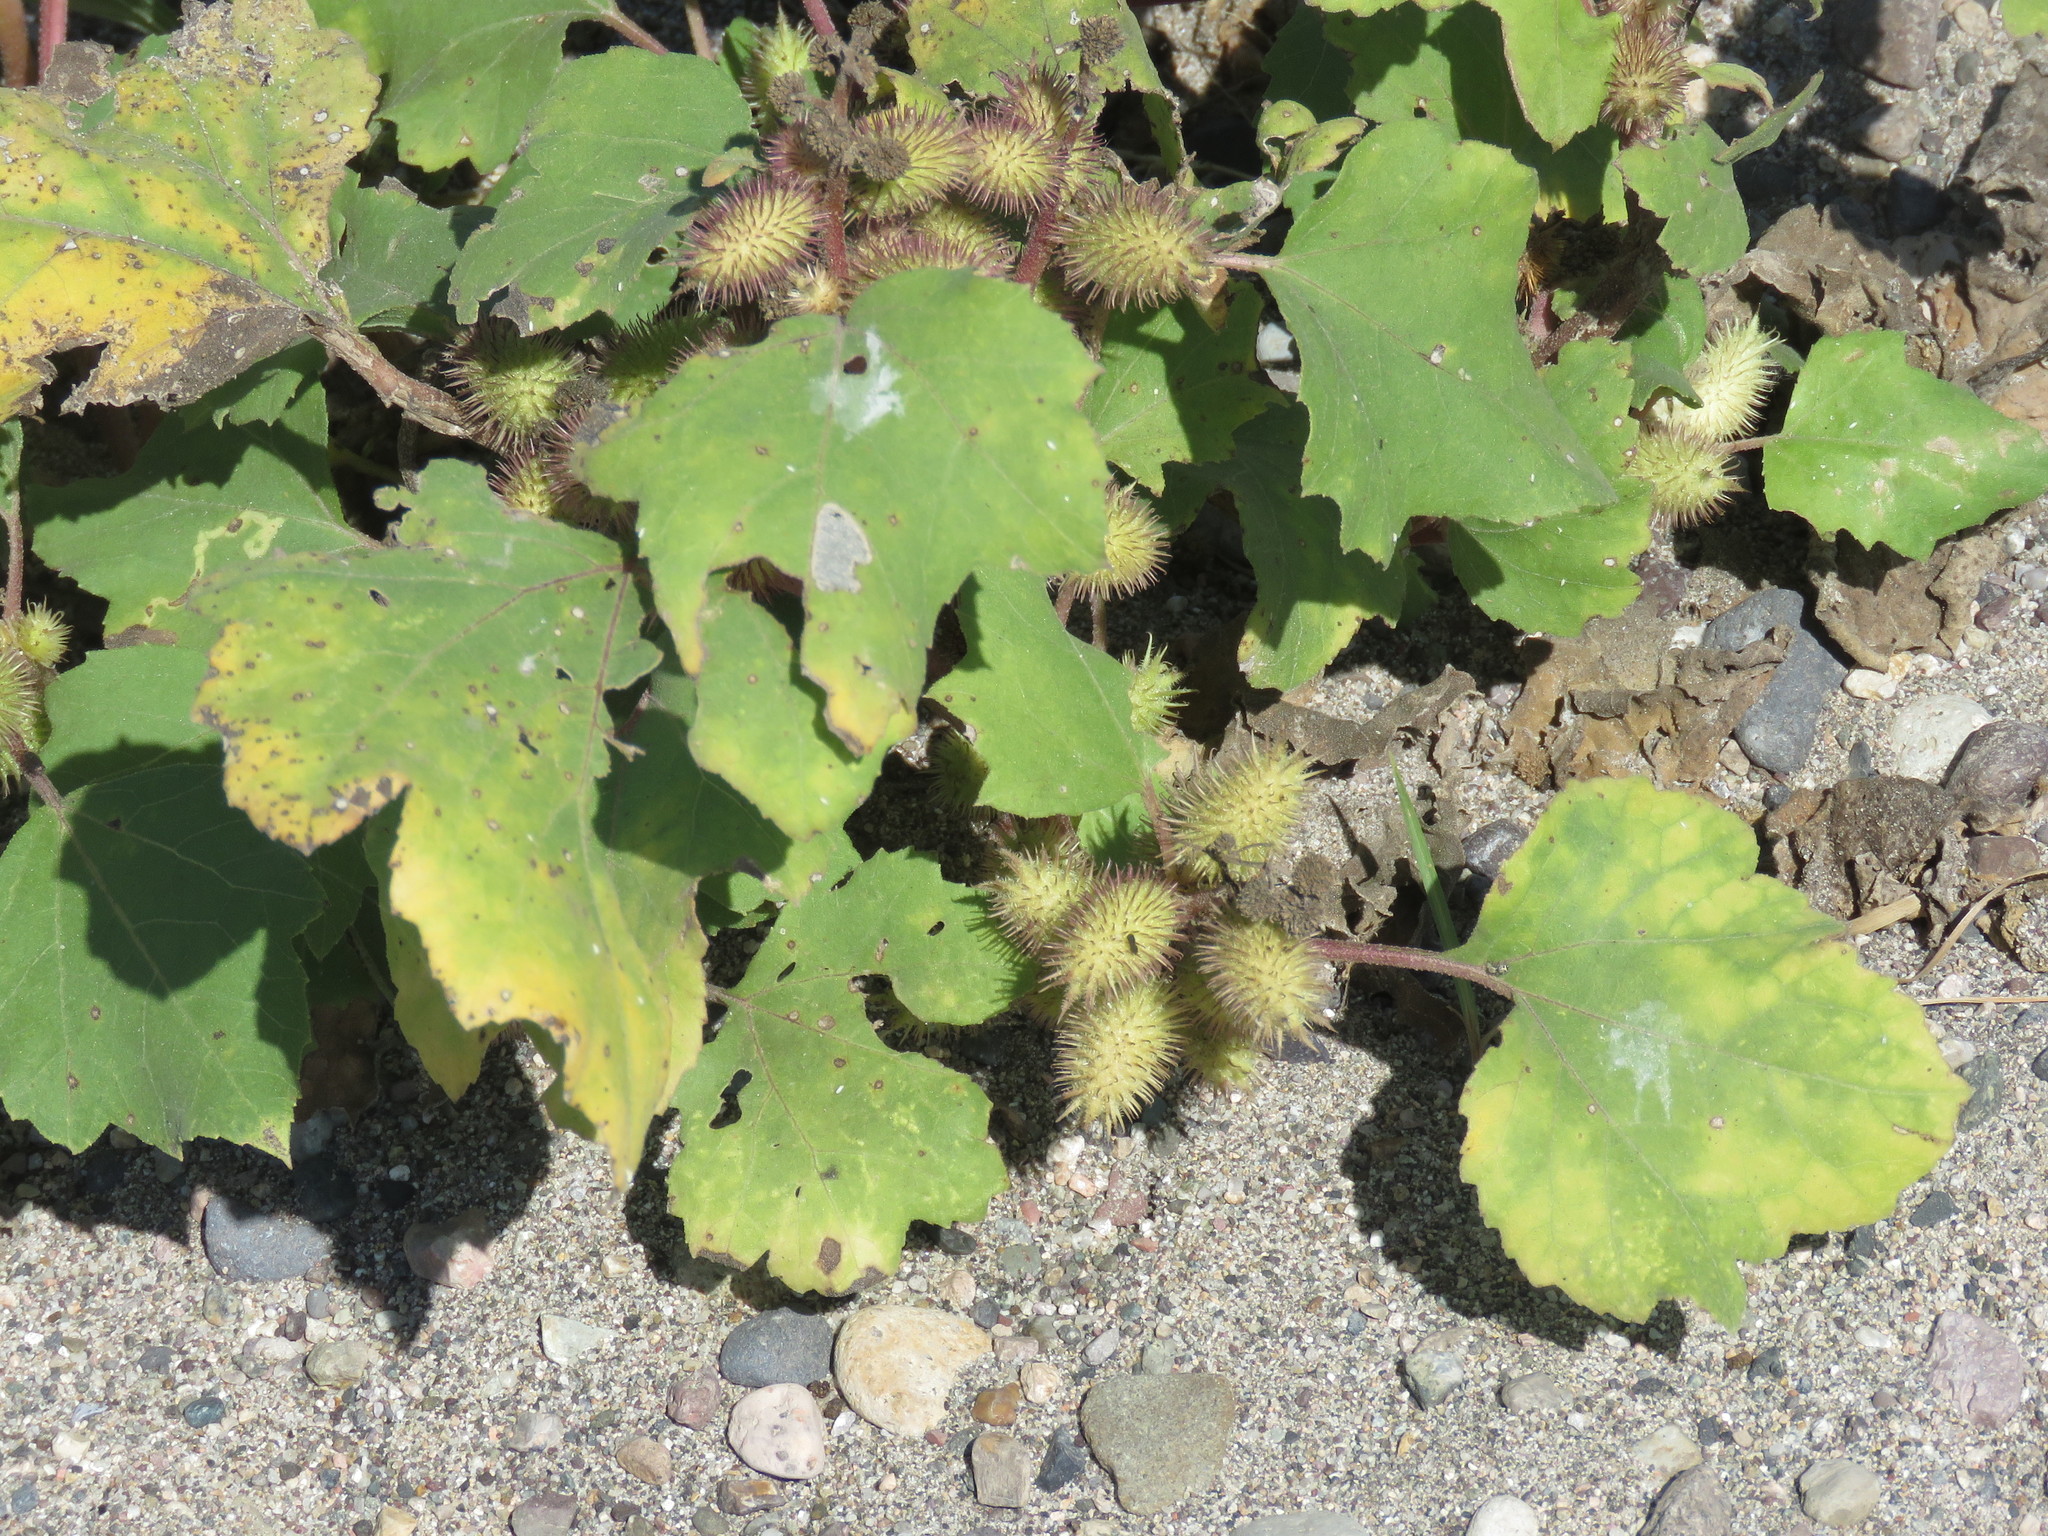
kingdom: Plantae
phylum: Tracheophyta
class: Magnoliopsida
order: Asterales
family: Asteraceae
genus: Xanthium
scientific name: Xanthium strumarium
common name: Rough cocklebur
